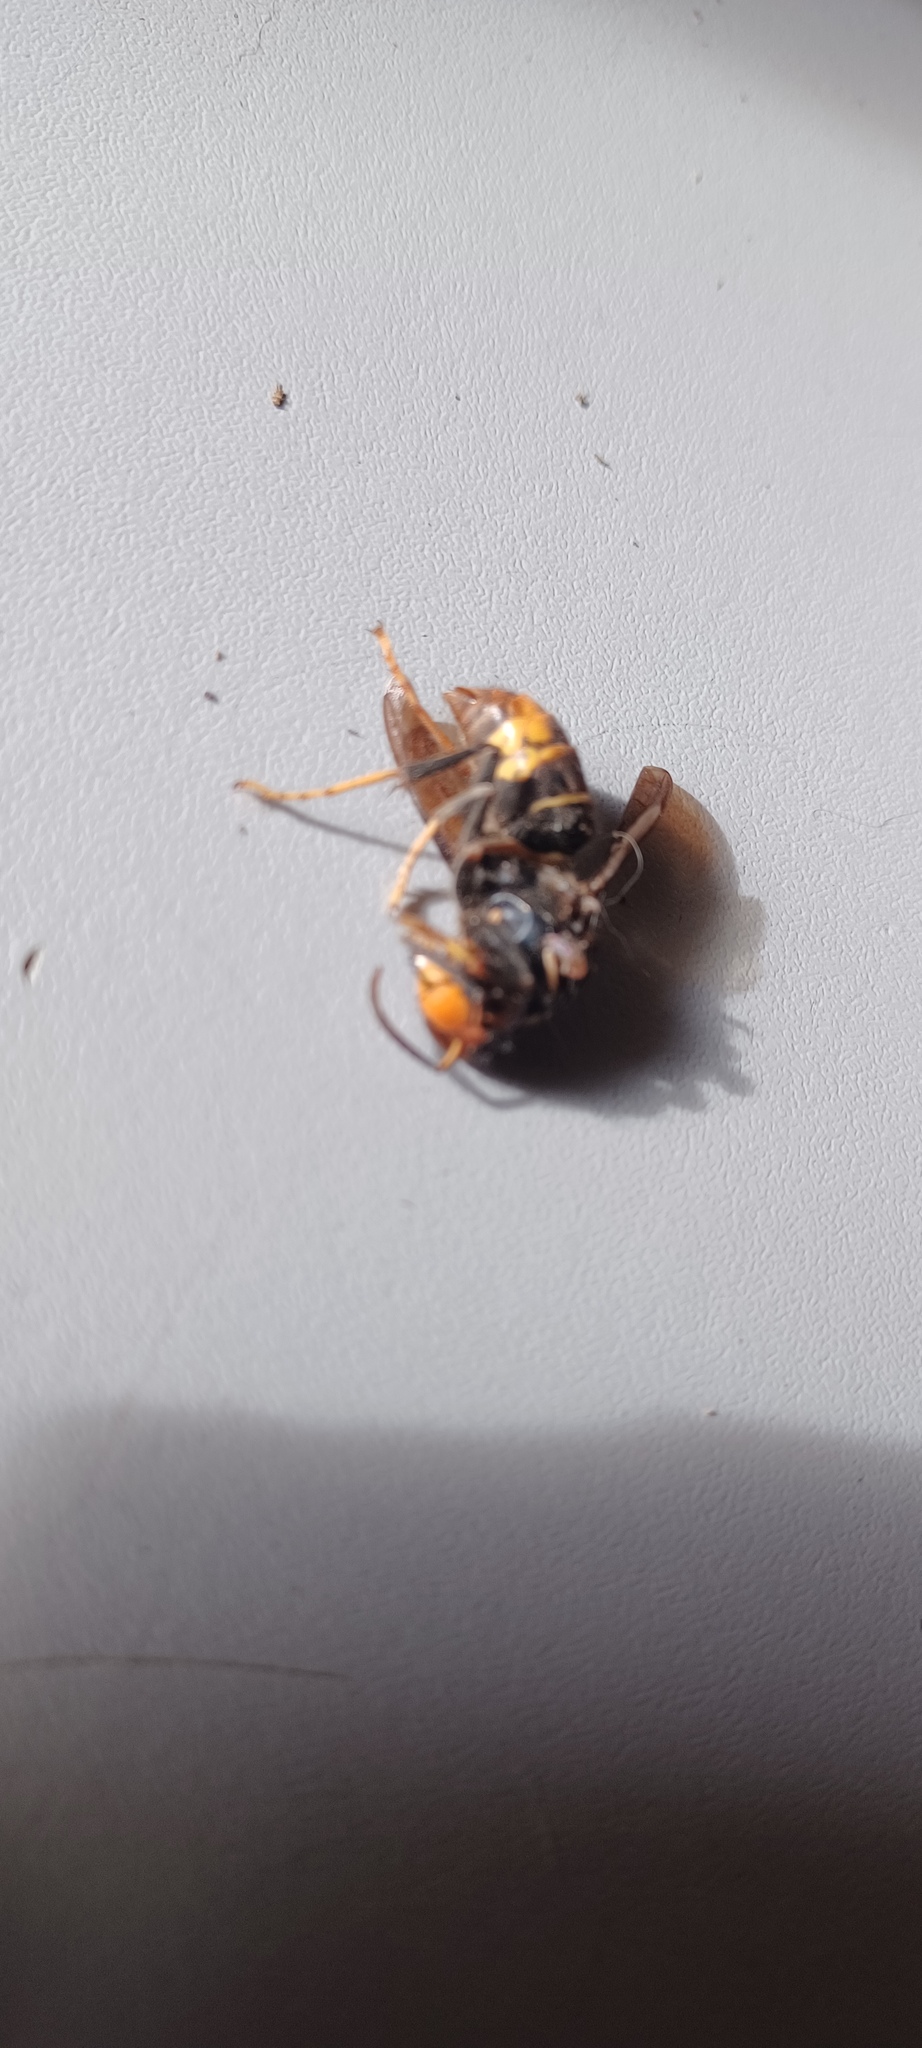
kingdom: Animalia
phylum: Arthropoda
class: Insecta
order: Hymenoptera
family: Vespidae
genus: Vespa
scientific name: Vespa velutina
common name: Asian hornet
